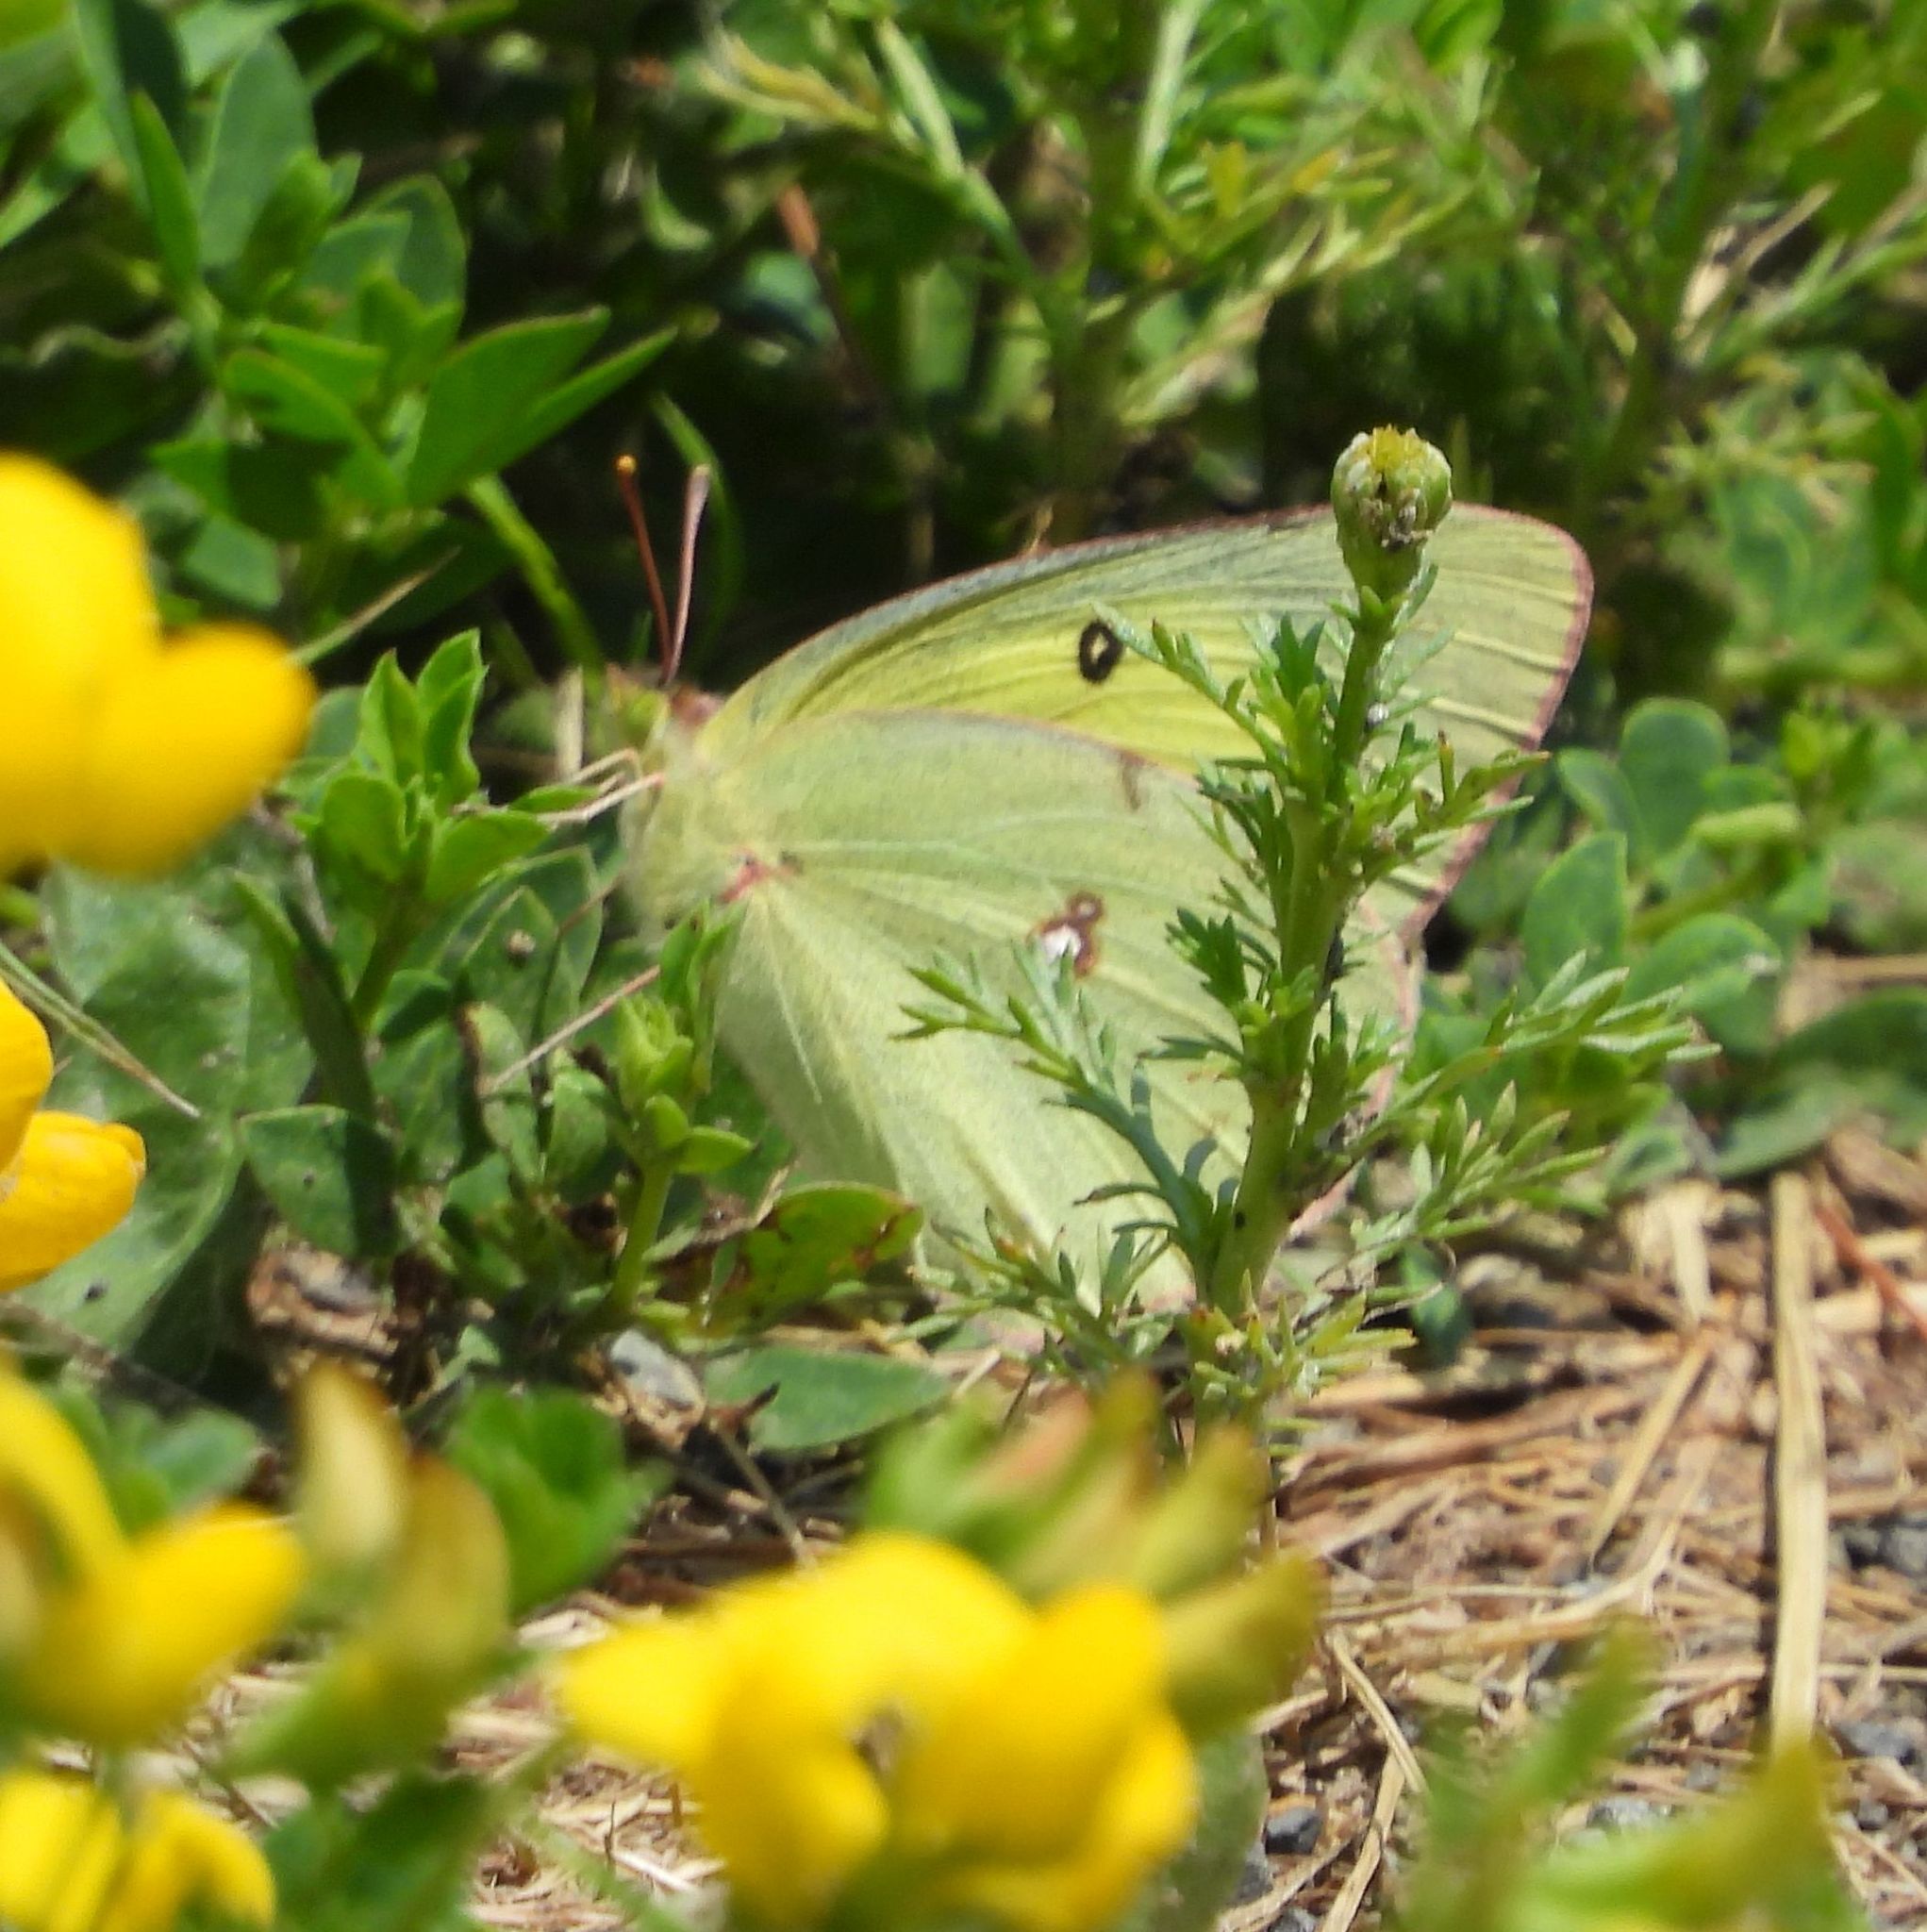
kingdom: Animalia
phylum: Arthropoda
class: Insecta
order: Lepidoptera
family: Pieridae
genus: Colias
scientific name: Colias philodice
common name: Clouded sulphur
